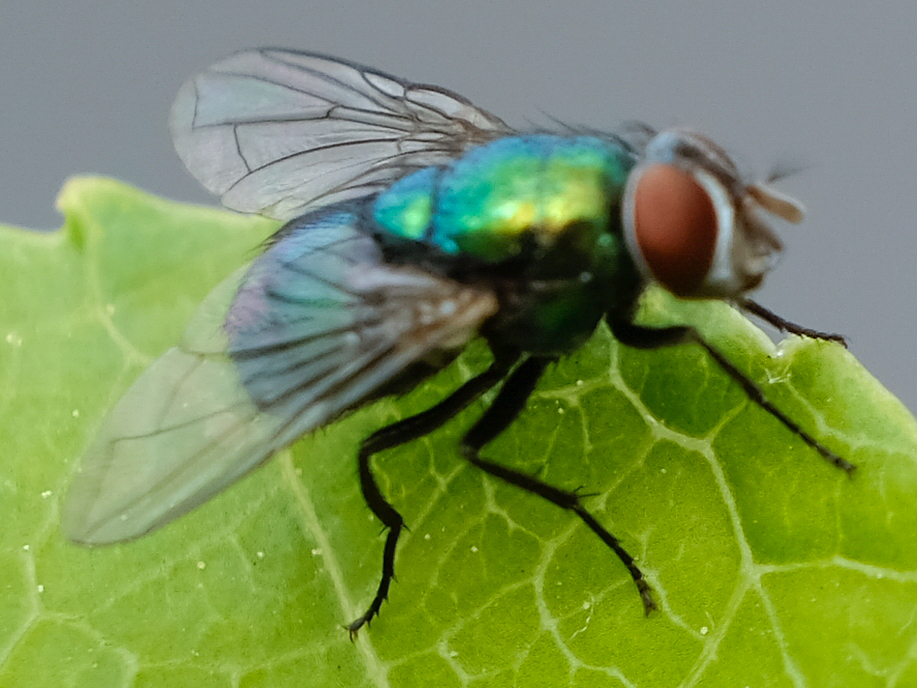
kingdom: Animalia
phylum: Arthropoda
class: Insecta
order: Diptera
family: Calliphoridae
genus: Lucilia
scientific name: Lucilia
